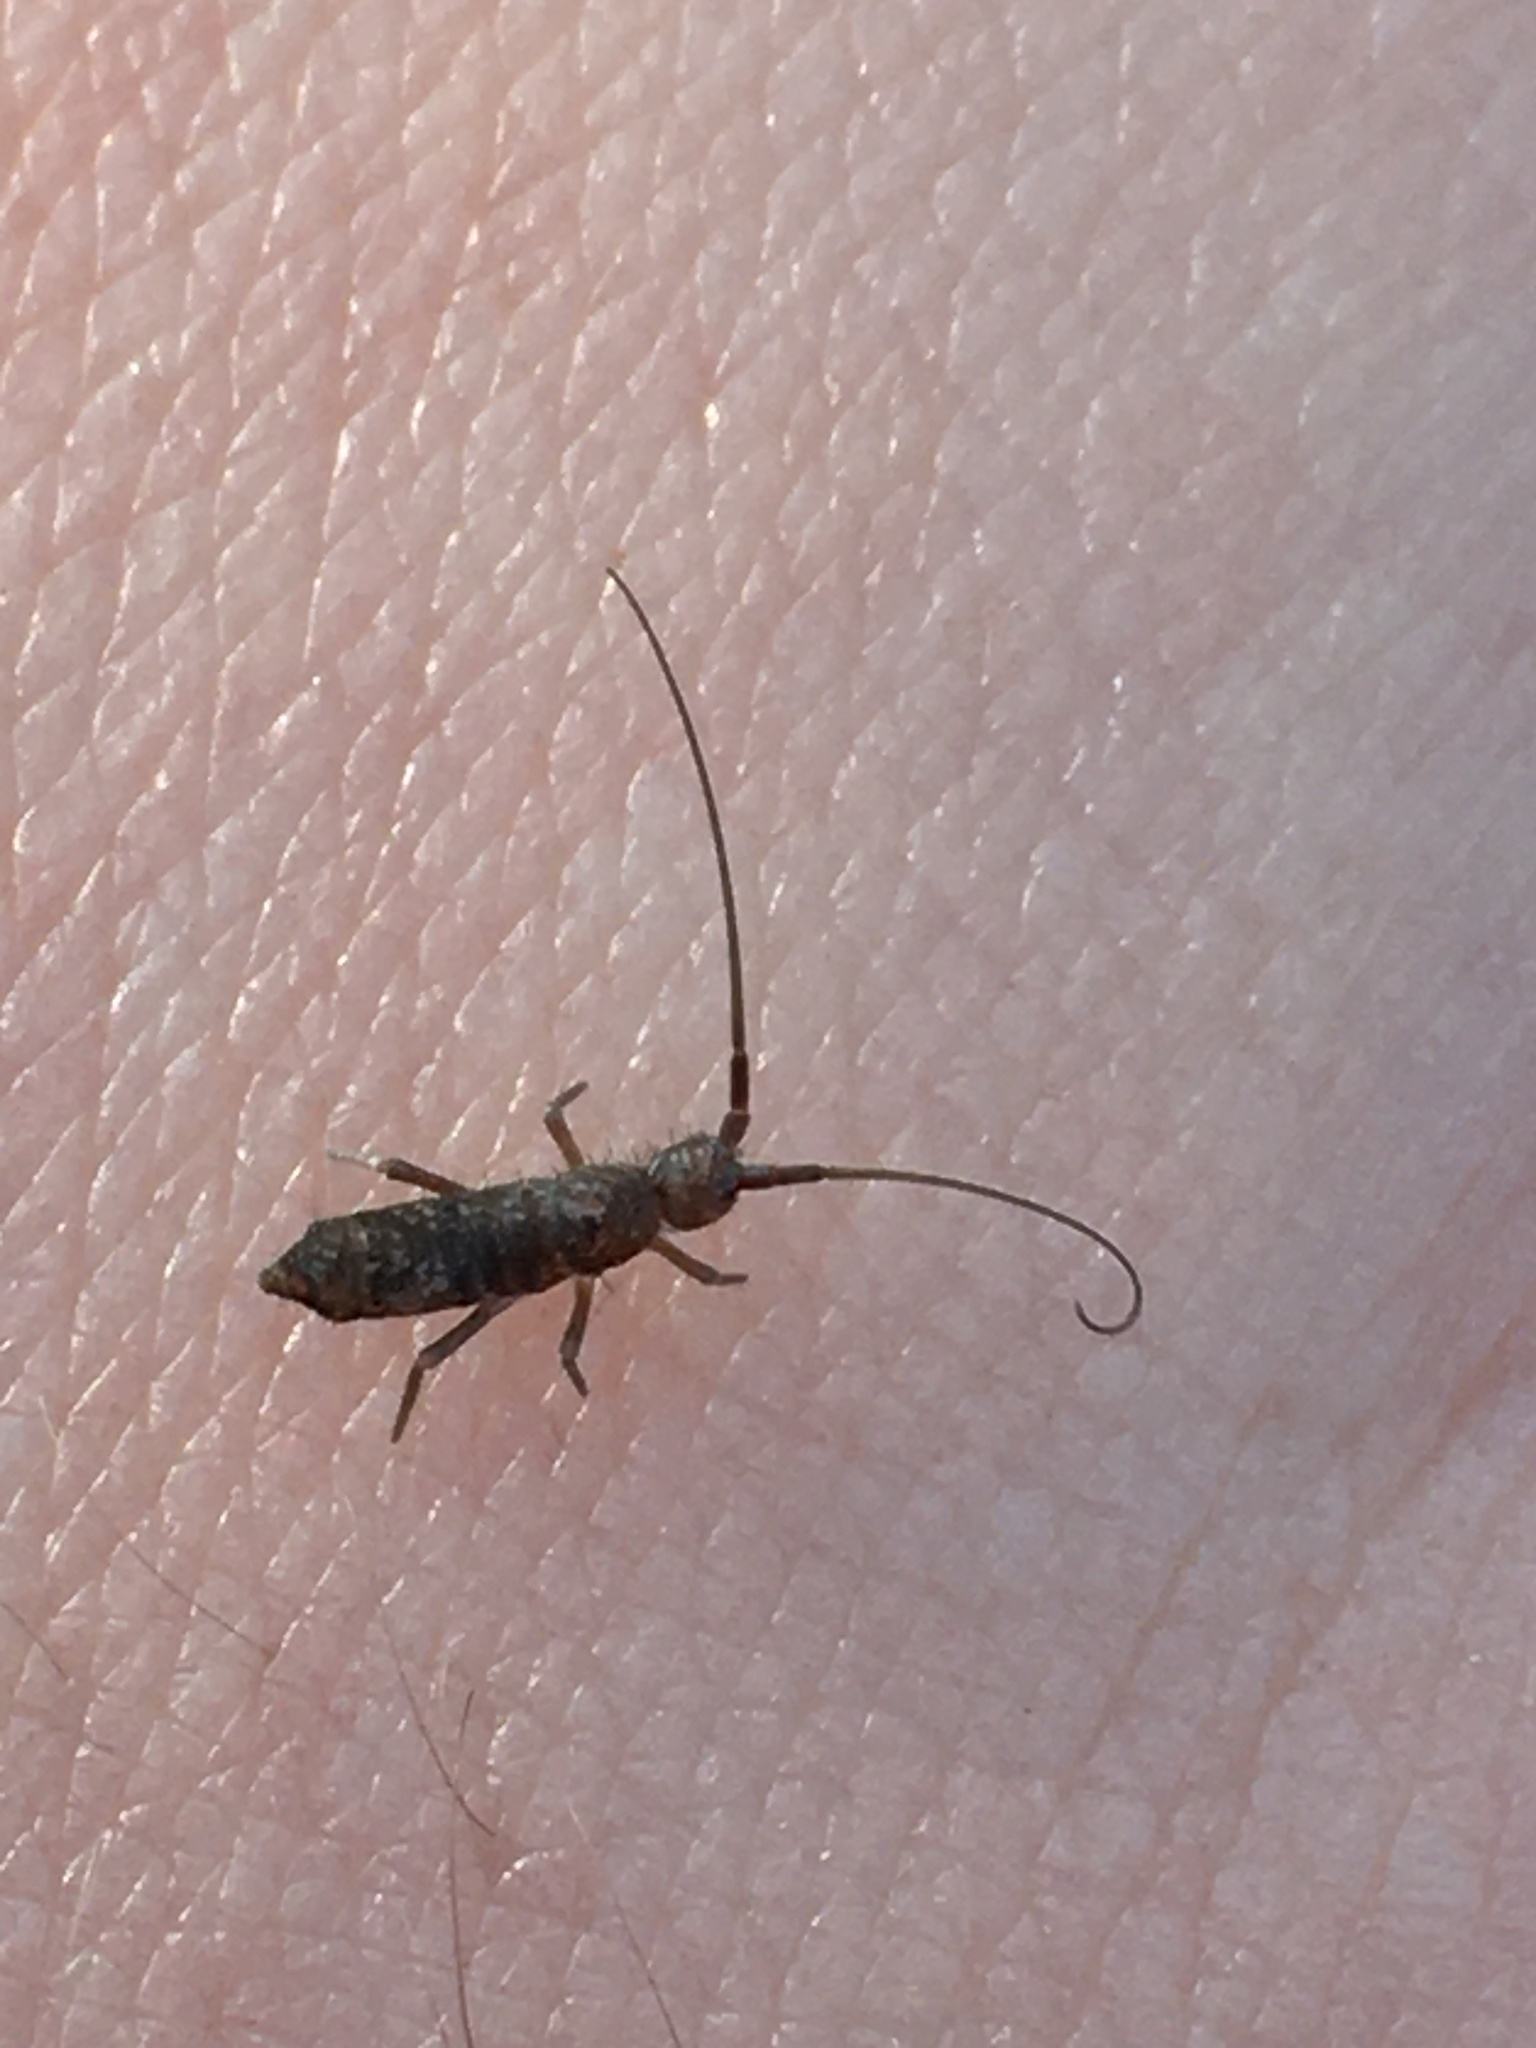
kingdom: Animalia
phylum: Arthropoda
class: Collembola
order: Entomobryomorpha
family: Tomoceridae
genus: Pogonognathellus
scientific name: Pogonognathellus longicornis
